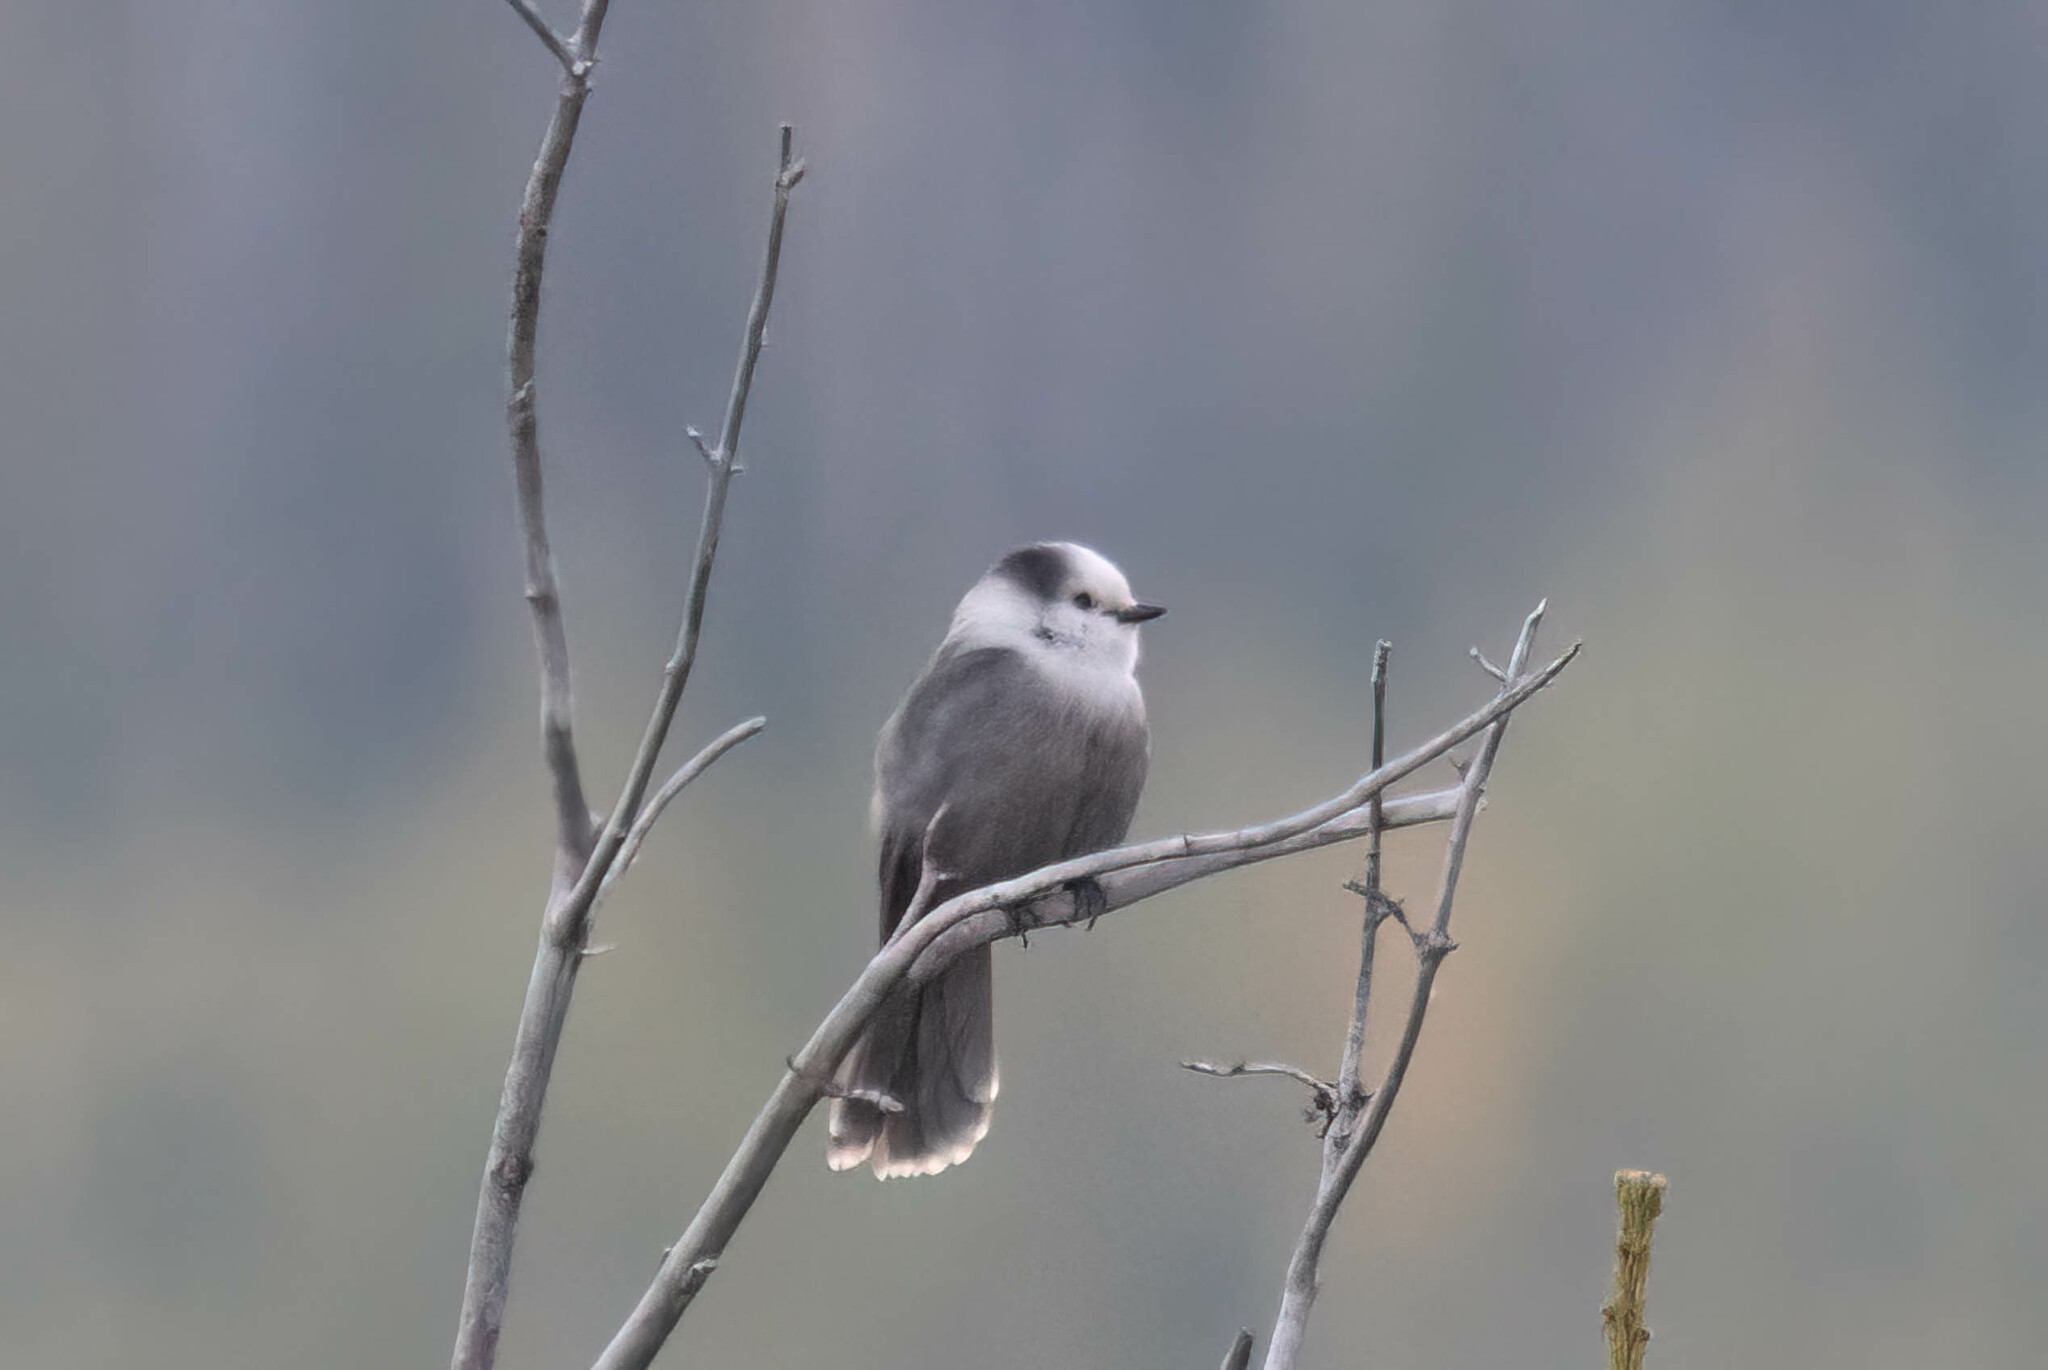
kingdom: Animalia
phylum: Chordata
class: Aves
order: Passeriformes
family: Corvidae
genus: Perisoreus
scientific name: Perisoreus canadensis
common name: Gray jay
